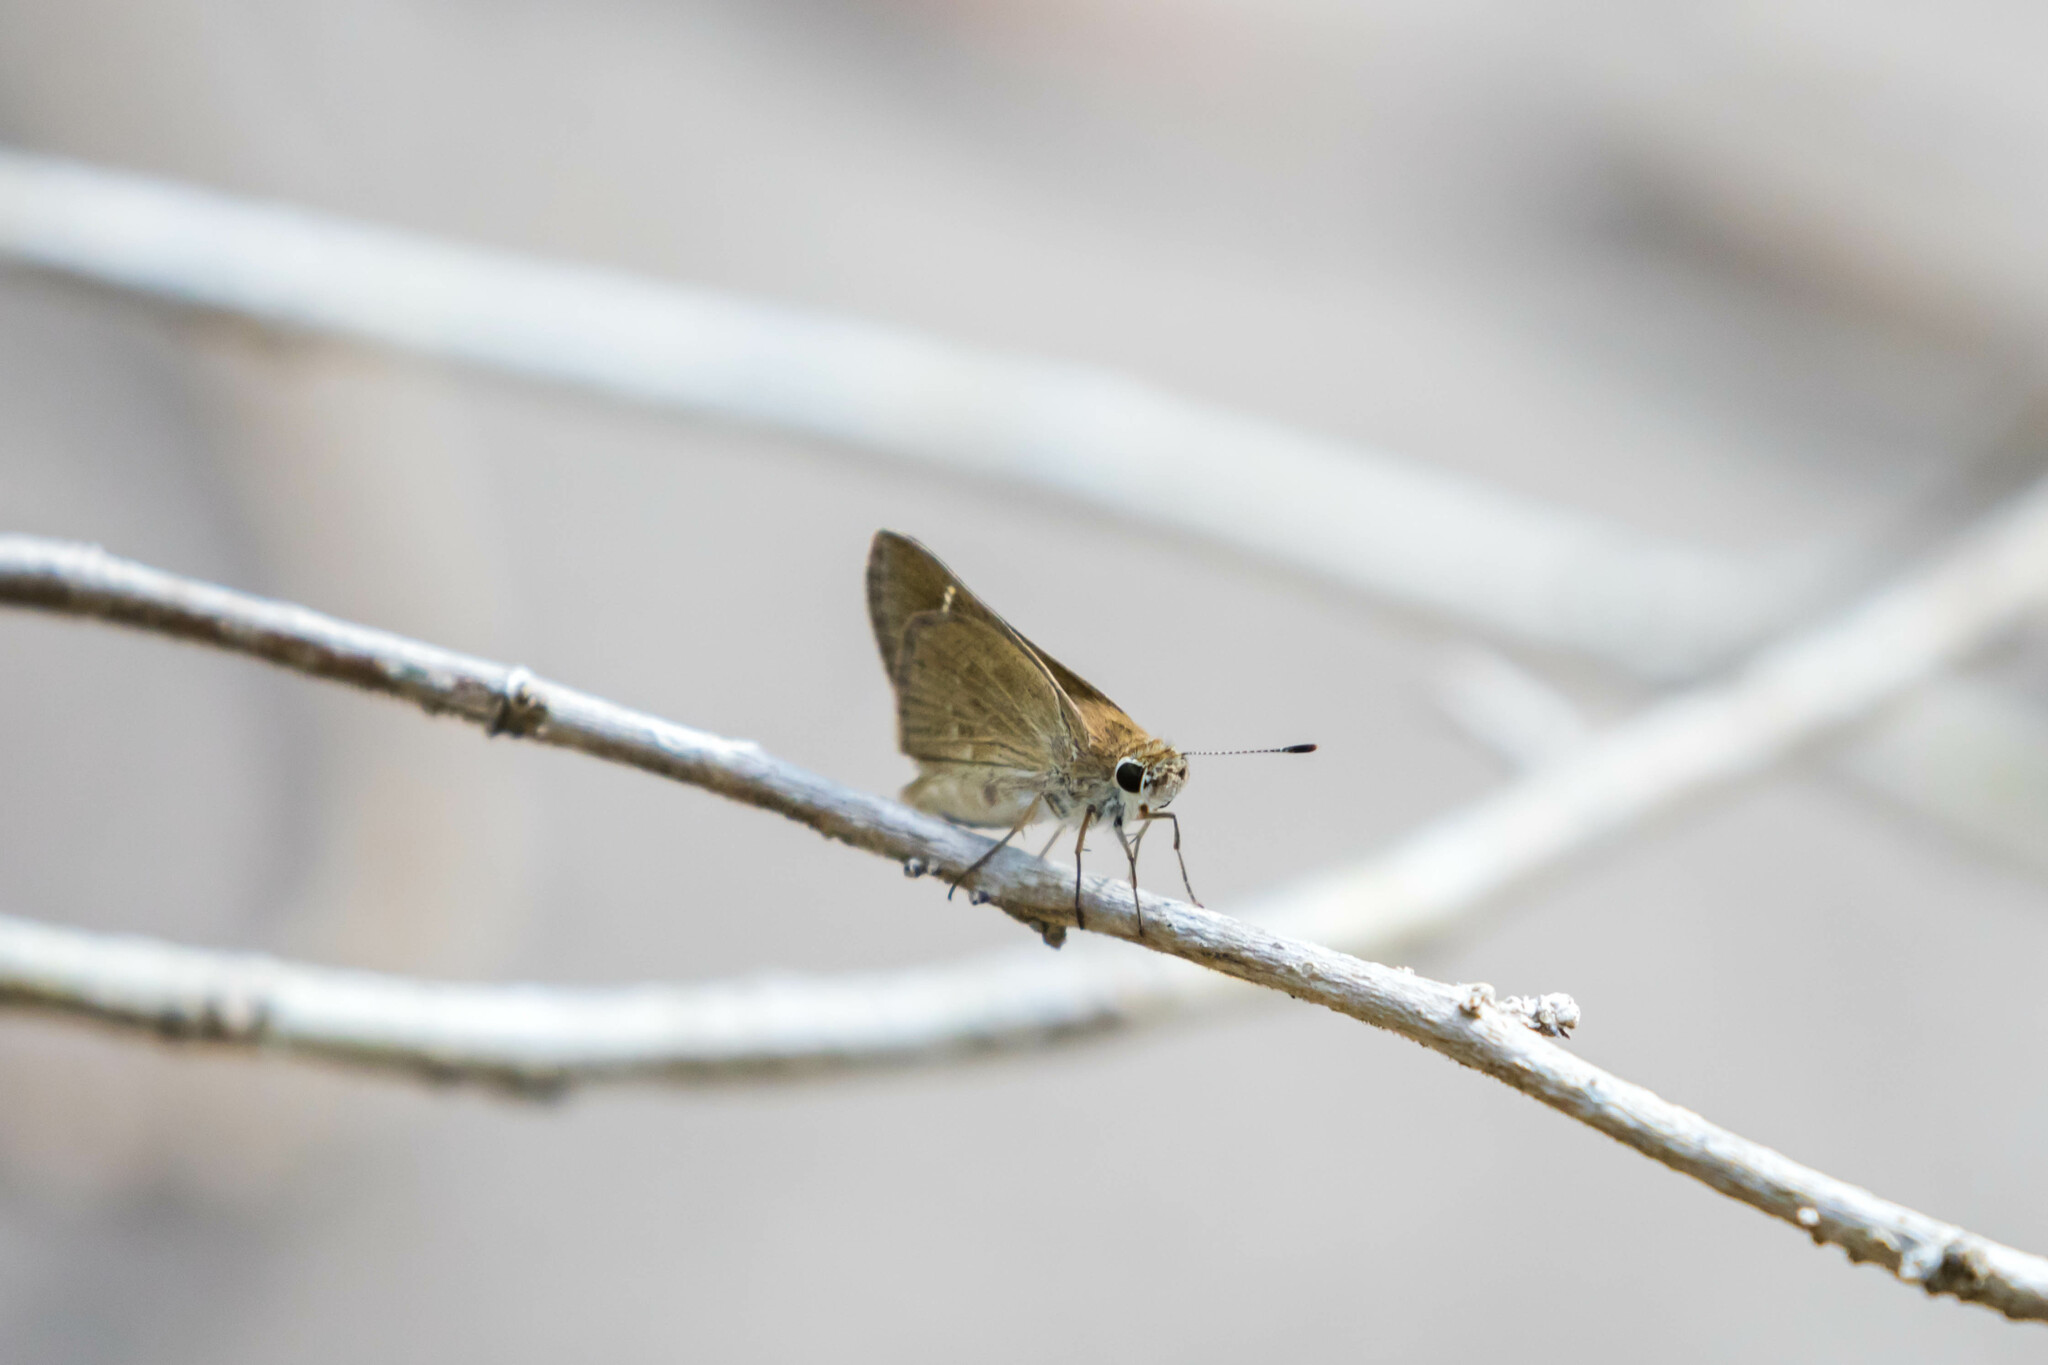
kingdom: Animalia
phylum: Arthropoda
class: Insecta
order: Lepidoptera
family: Hesperiidae
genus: Lerodea
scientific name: Lerodea eufala
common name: Eufala skipper
